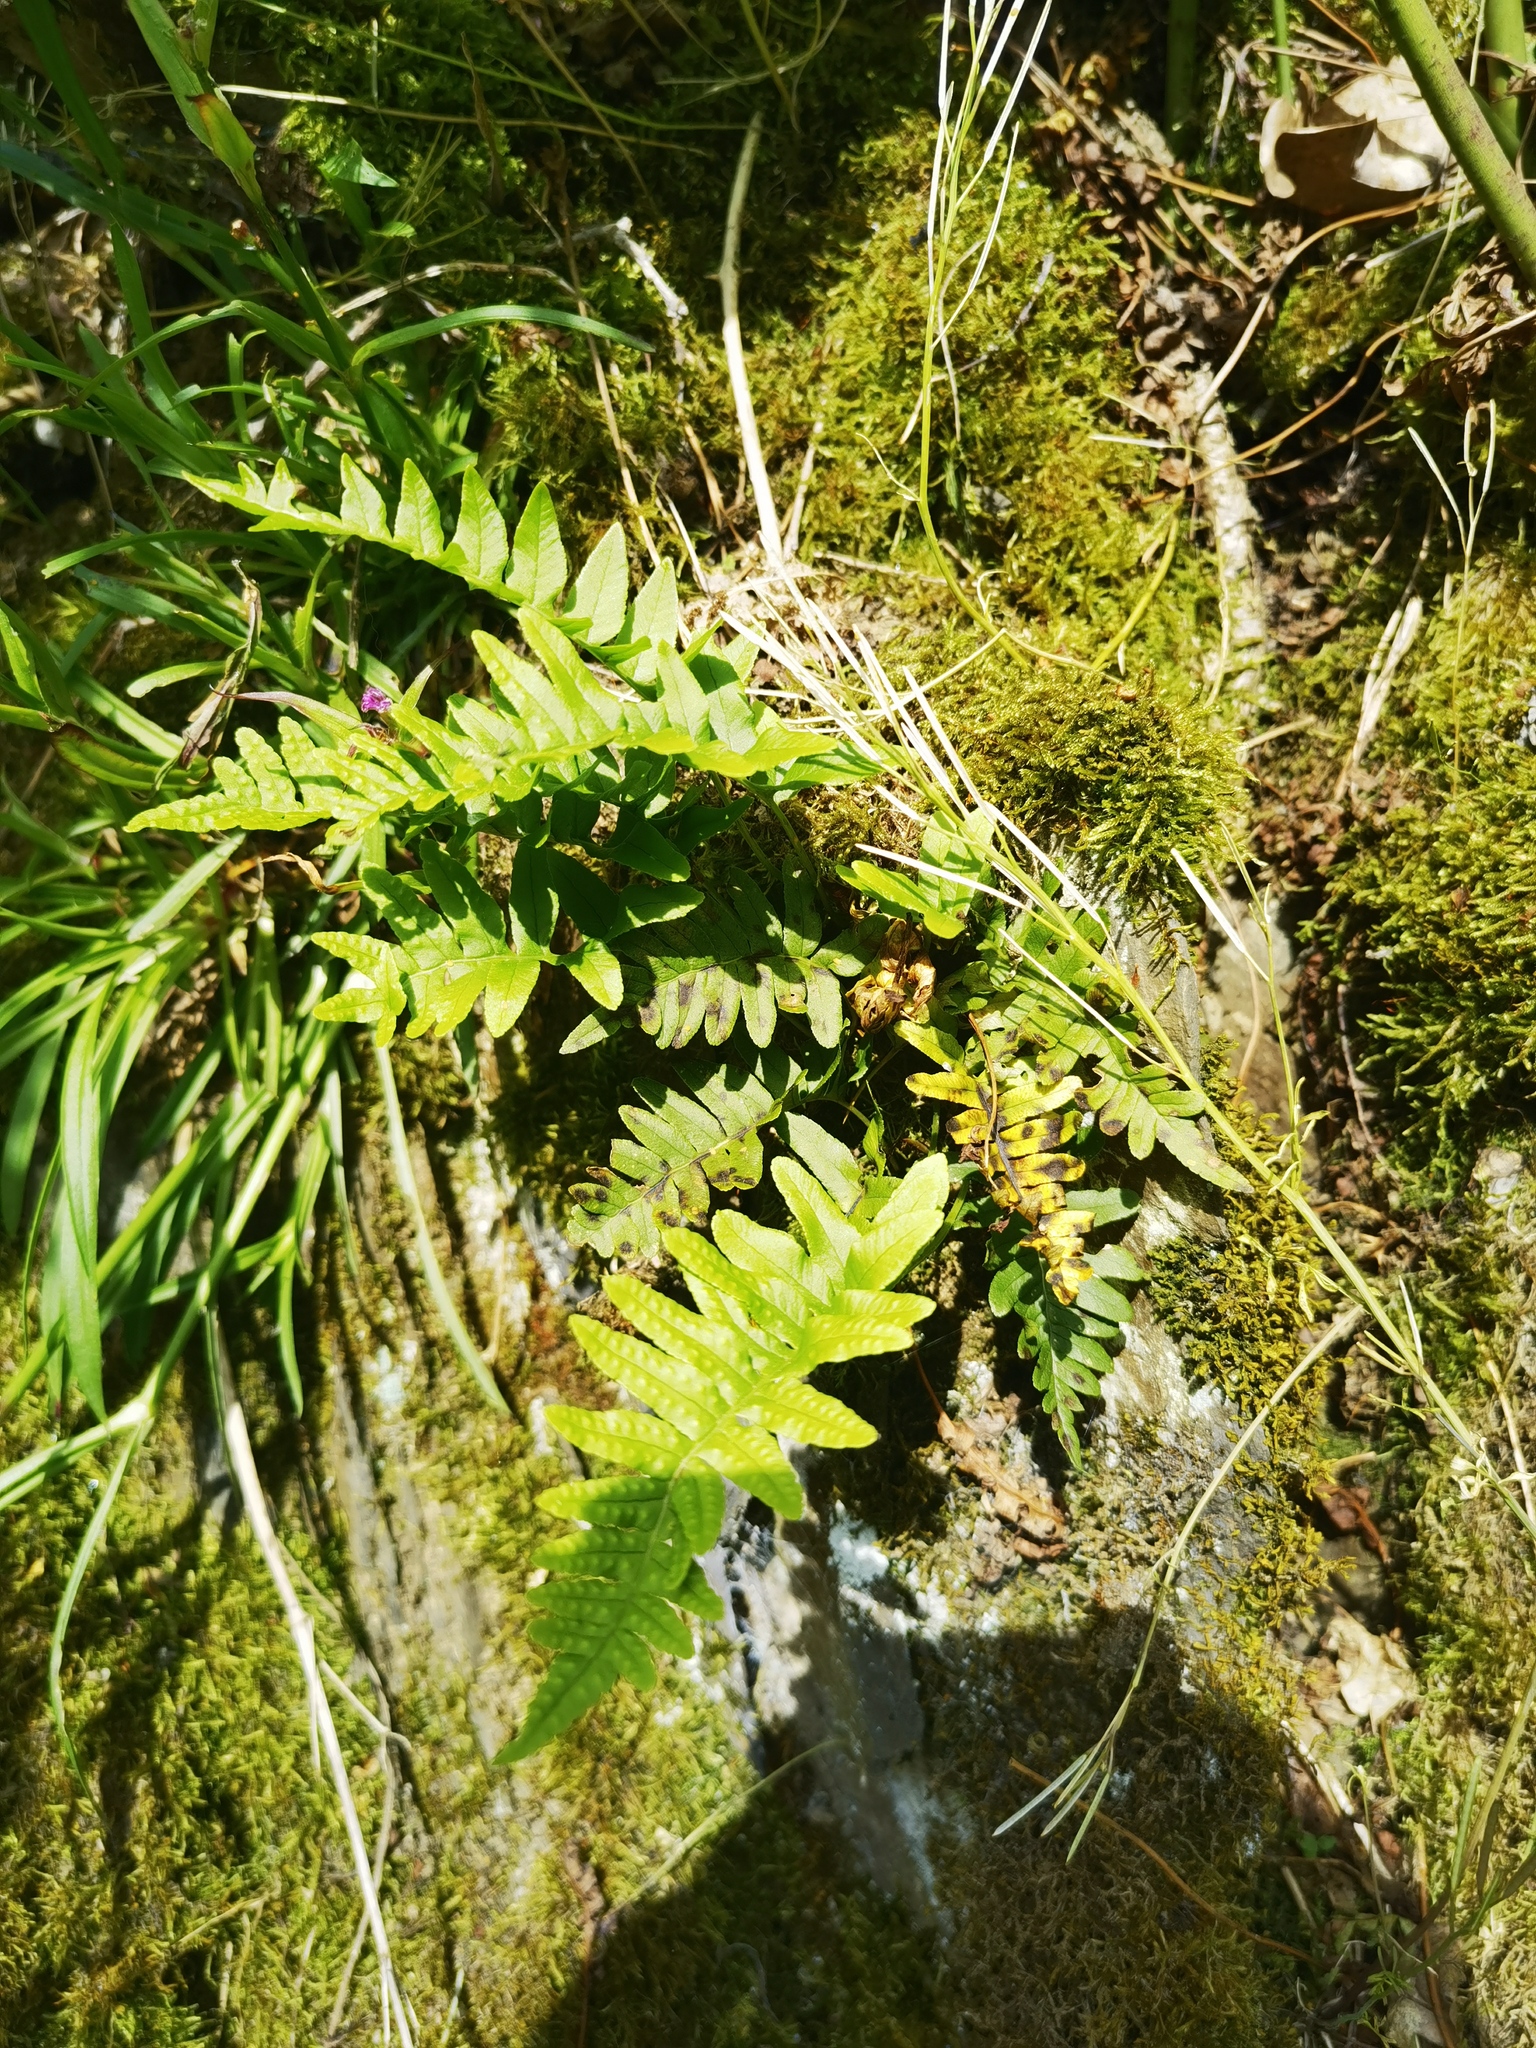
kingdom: Plantae
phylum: Tracheophyta
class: Polypodiopsida
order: Polypodiales
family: Polypodiaceae
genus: Polypodium
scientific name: Polypodium vulgare
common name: Common polypody
